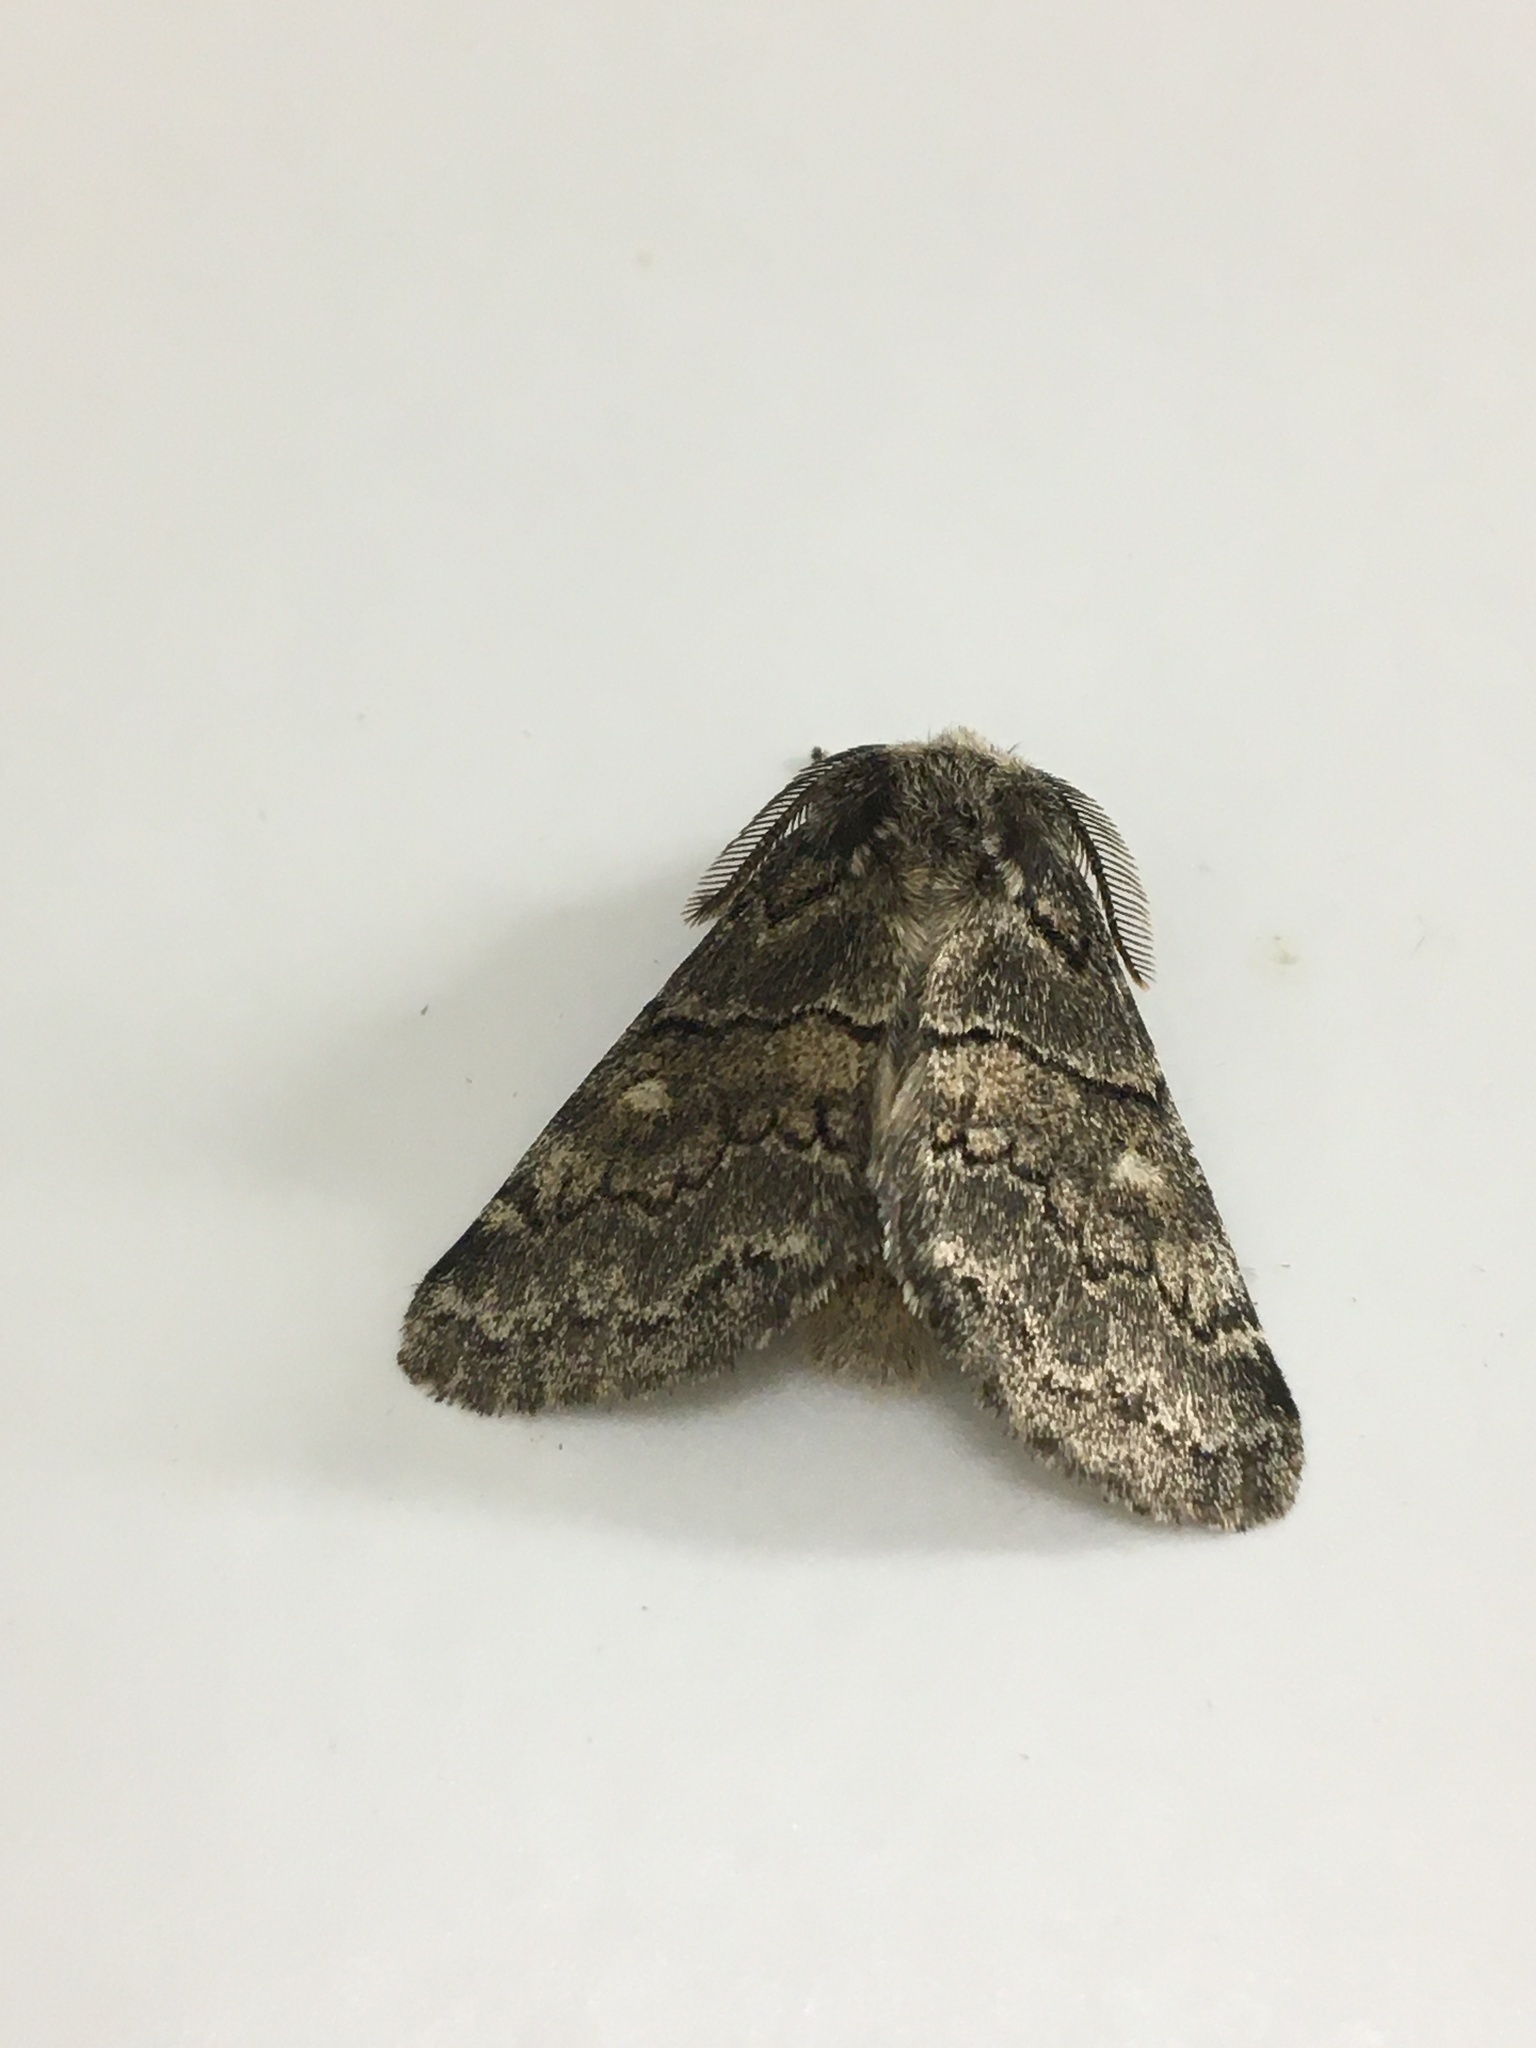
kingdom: Animalia
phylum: Arthropoda
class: Insecta
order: Lepidoptera
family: Notodontidae
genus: Gluphisia
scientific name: Gluphisia crenata
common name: Dusky marbled brown
